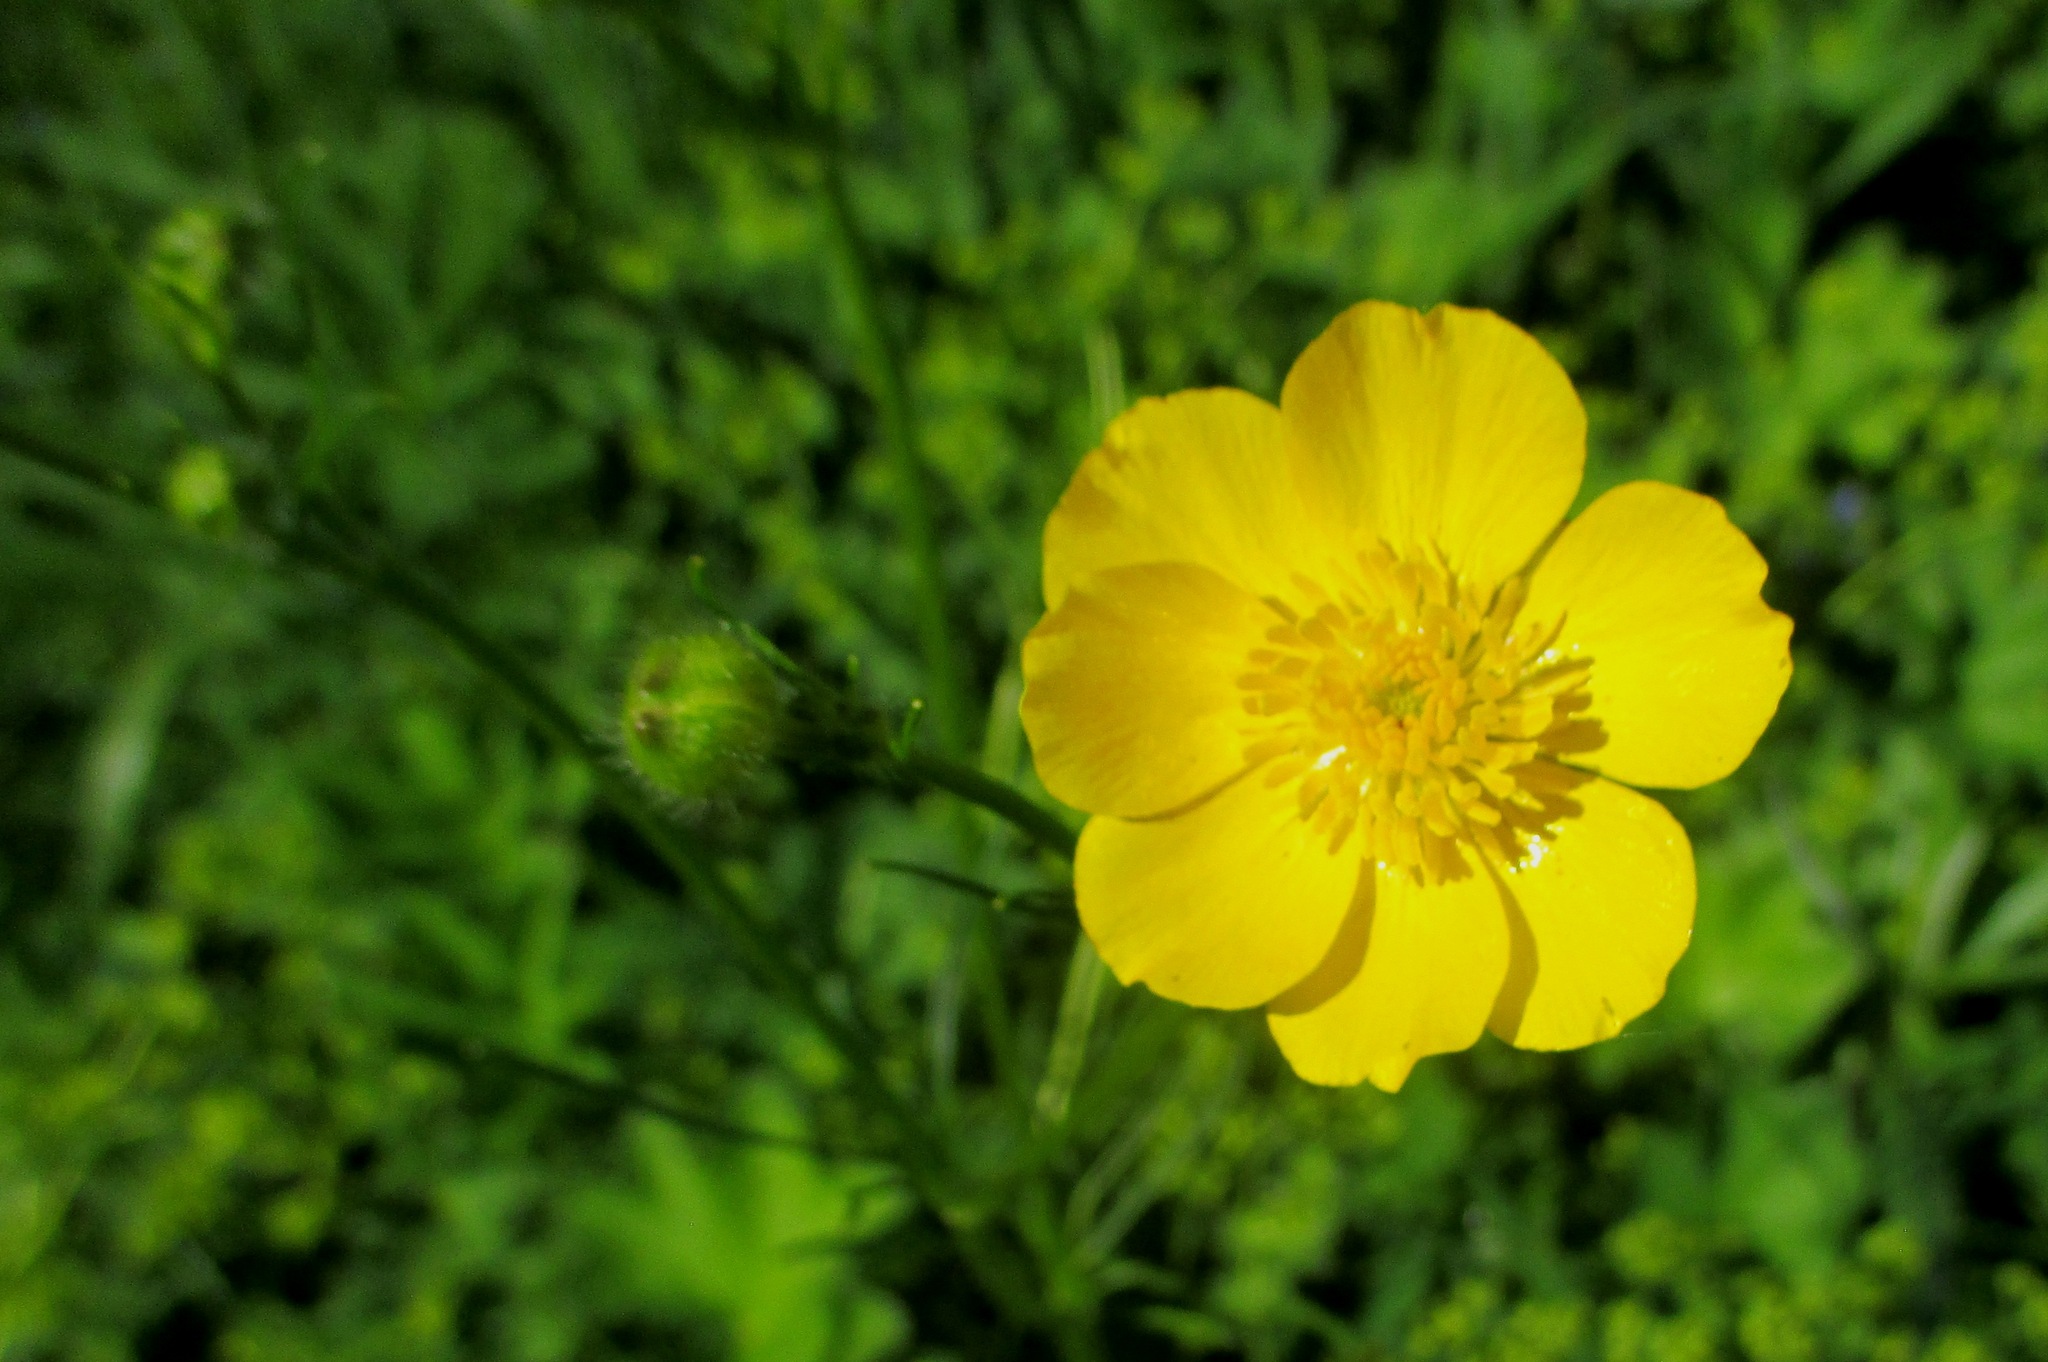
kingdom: Plantae
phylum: Tracheophyta
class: Magnoliopsida
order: Ranunculales
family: Ranunculaceae
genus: Ranunculus
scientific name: Ranunculus polyanthemos
